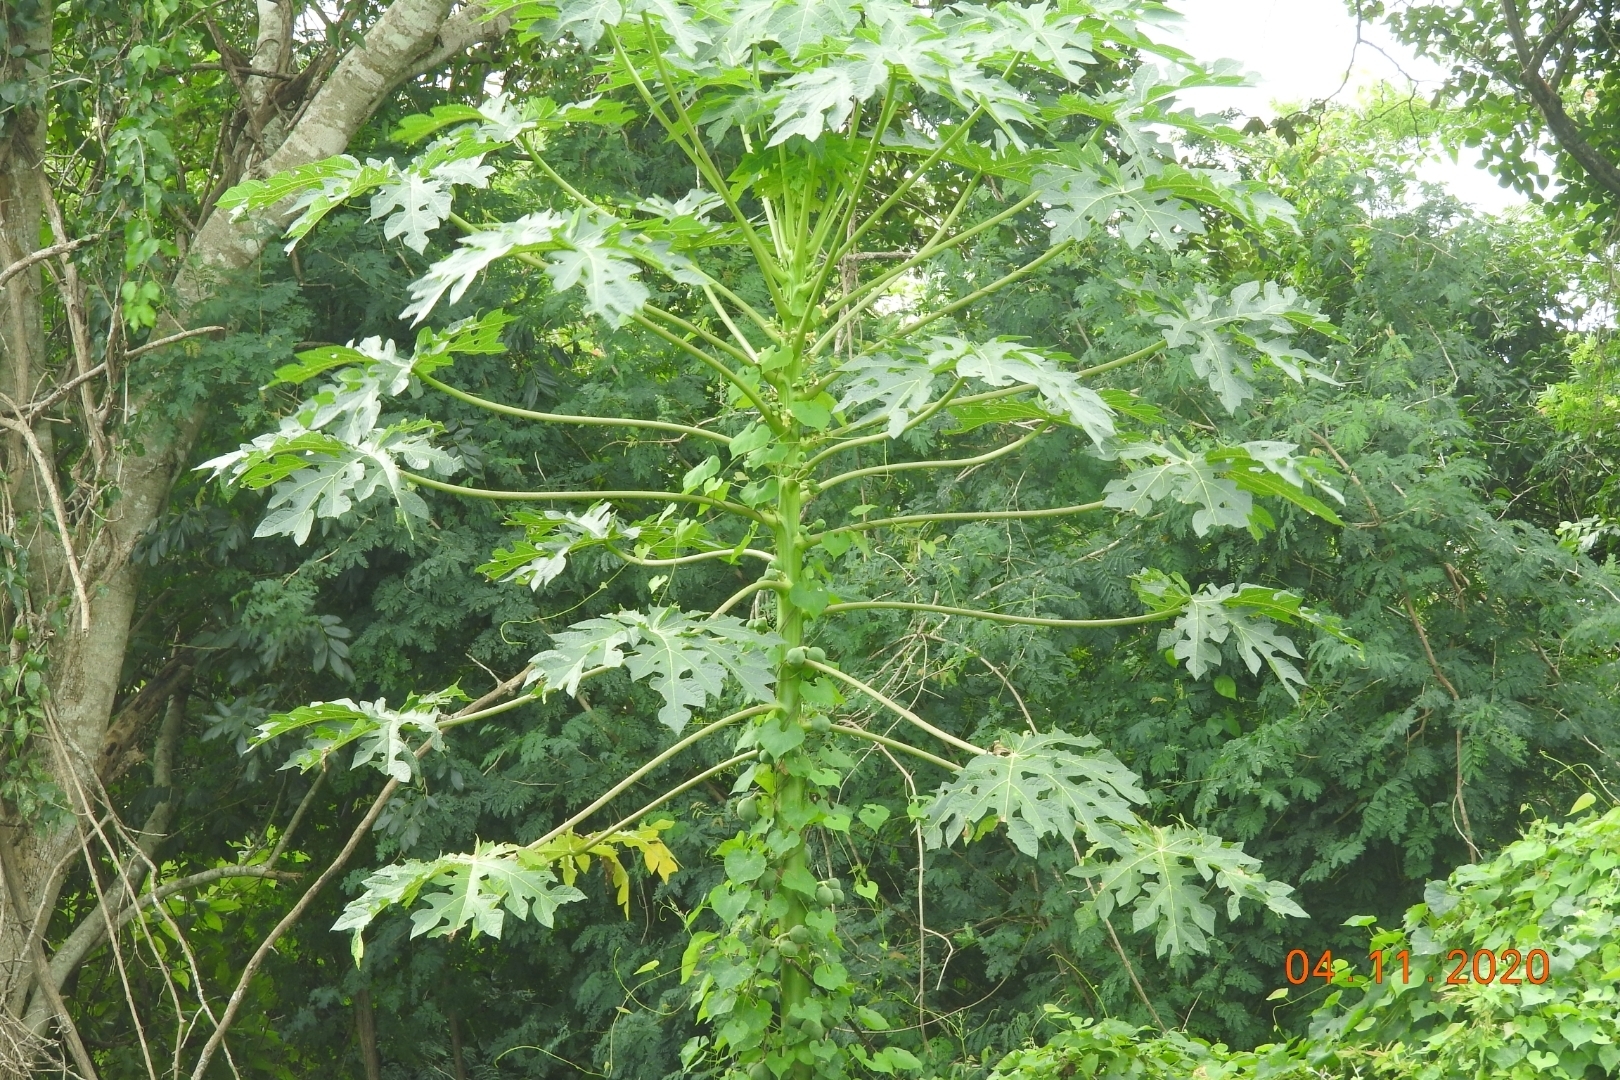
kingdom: Plantae
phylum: Tracheophyta
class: Magnoliopsida
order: Brassicales
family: Caricaceae
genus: Carica
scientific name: Carica papaya
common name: Papaya
